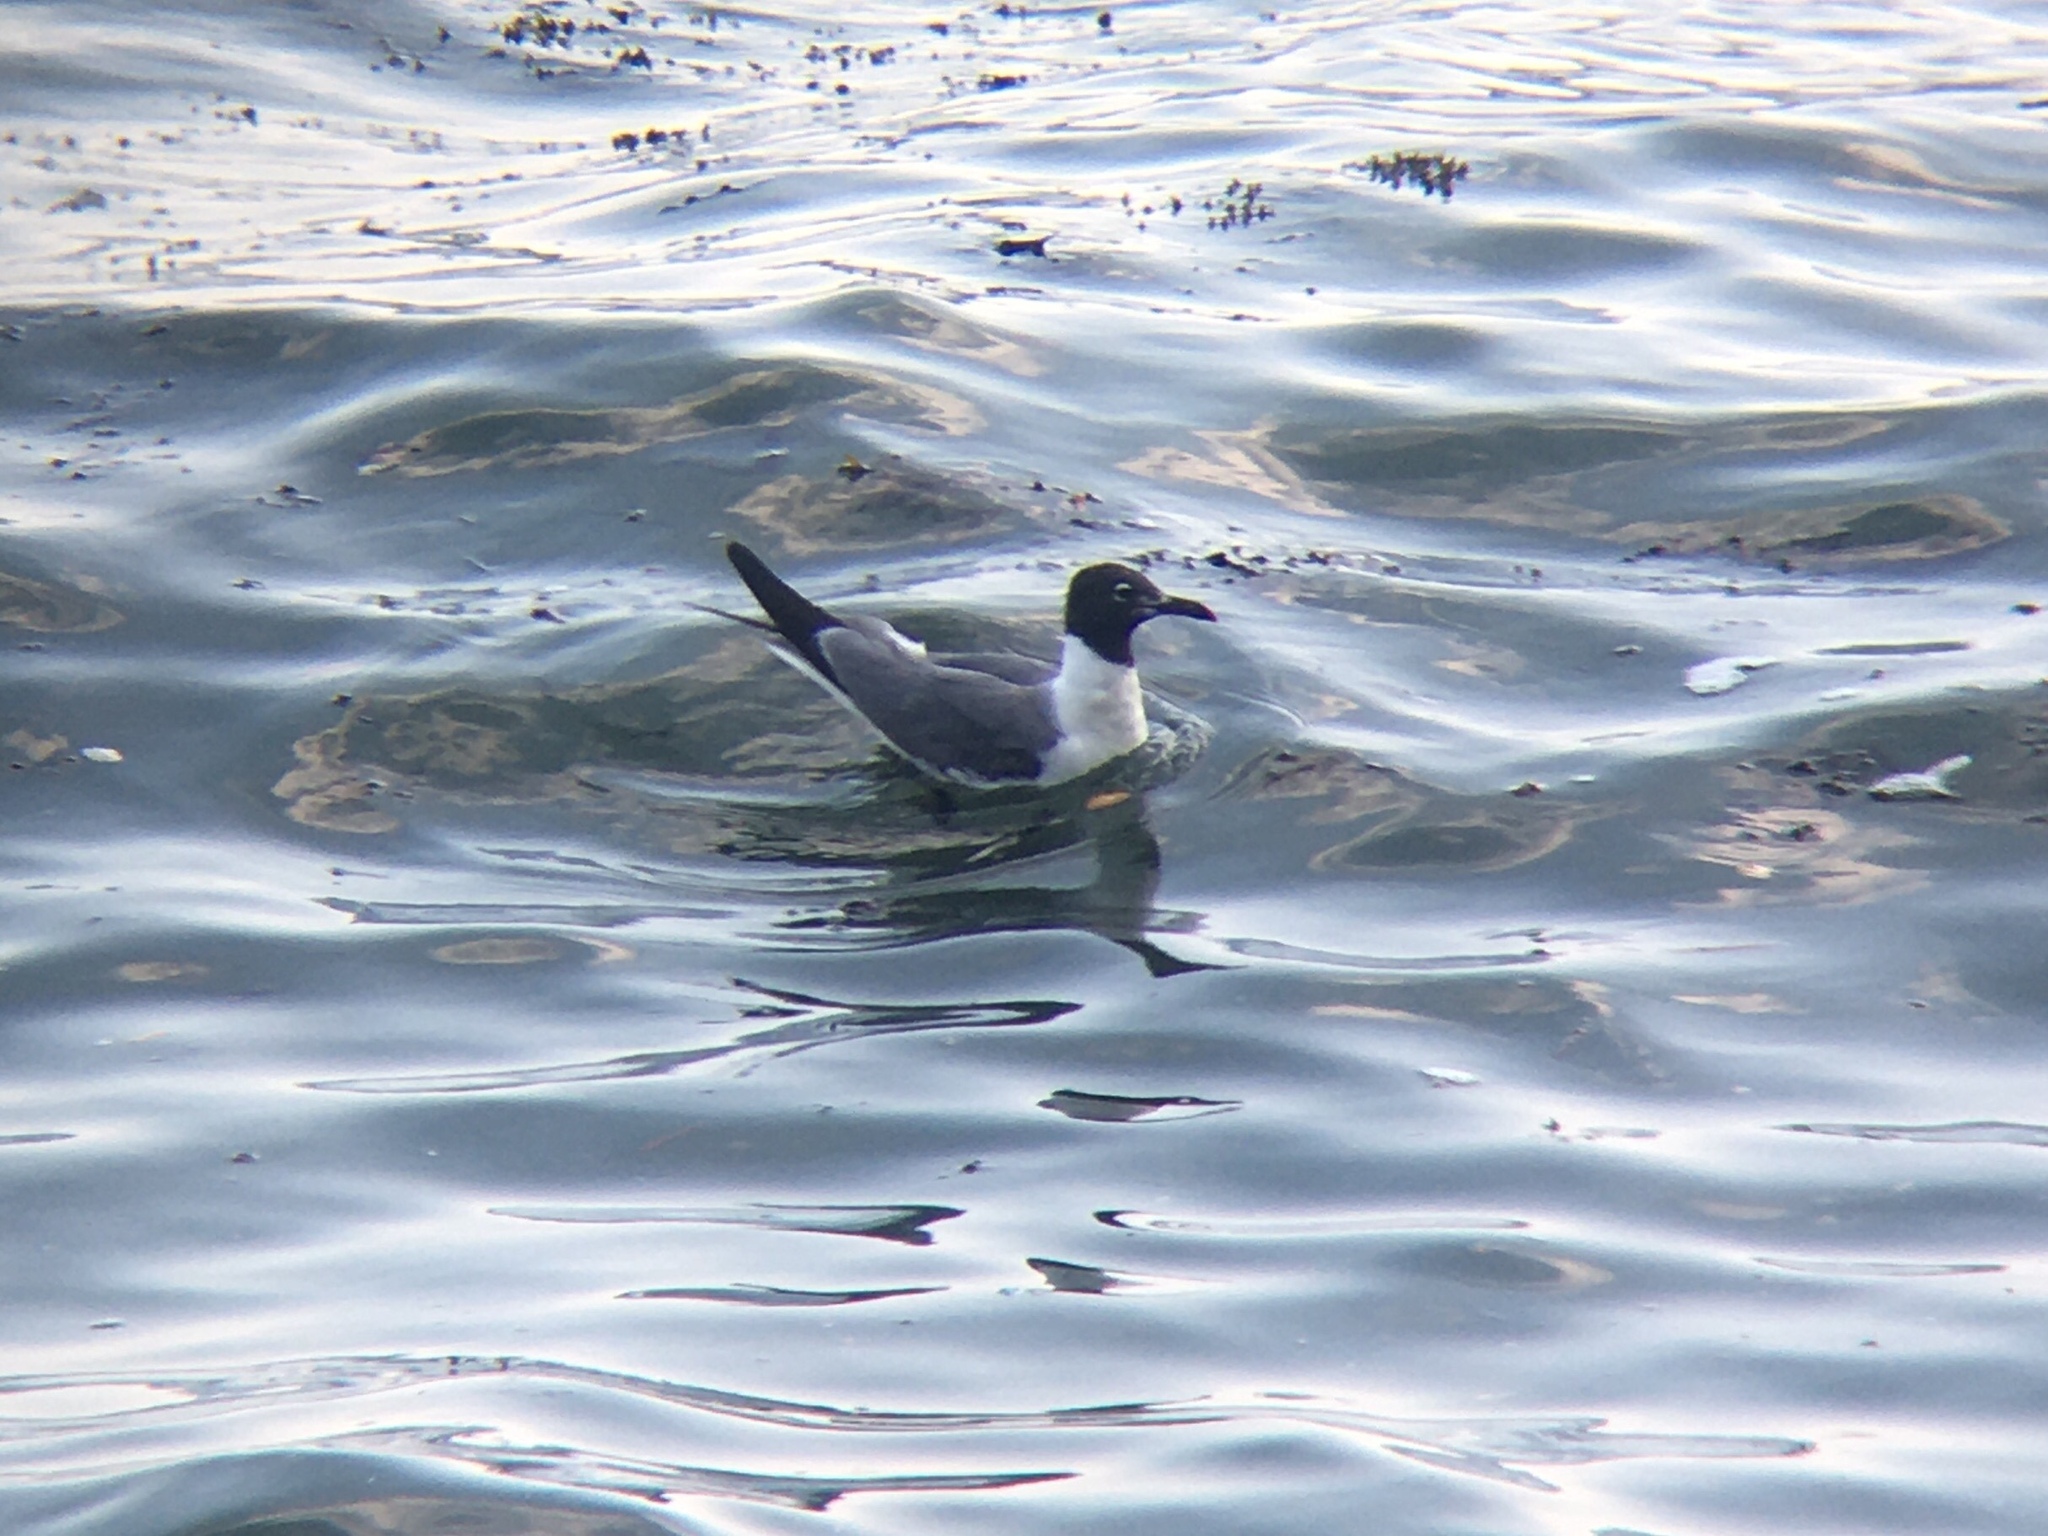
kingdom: Animalia
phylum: Chordata
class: Aves
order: Charadriiformes
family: Laridae
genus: Leucophaeus
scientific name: Leucophaeus atricilla
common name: Laughing gull
